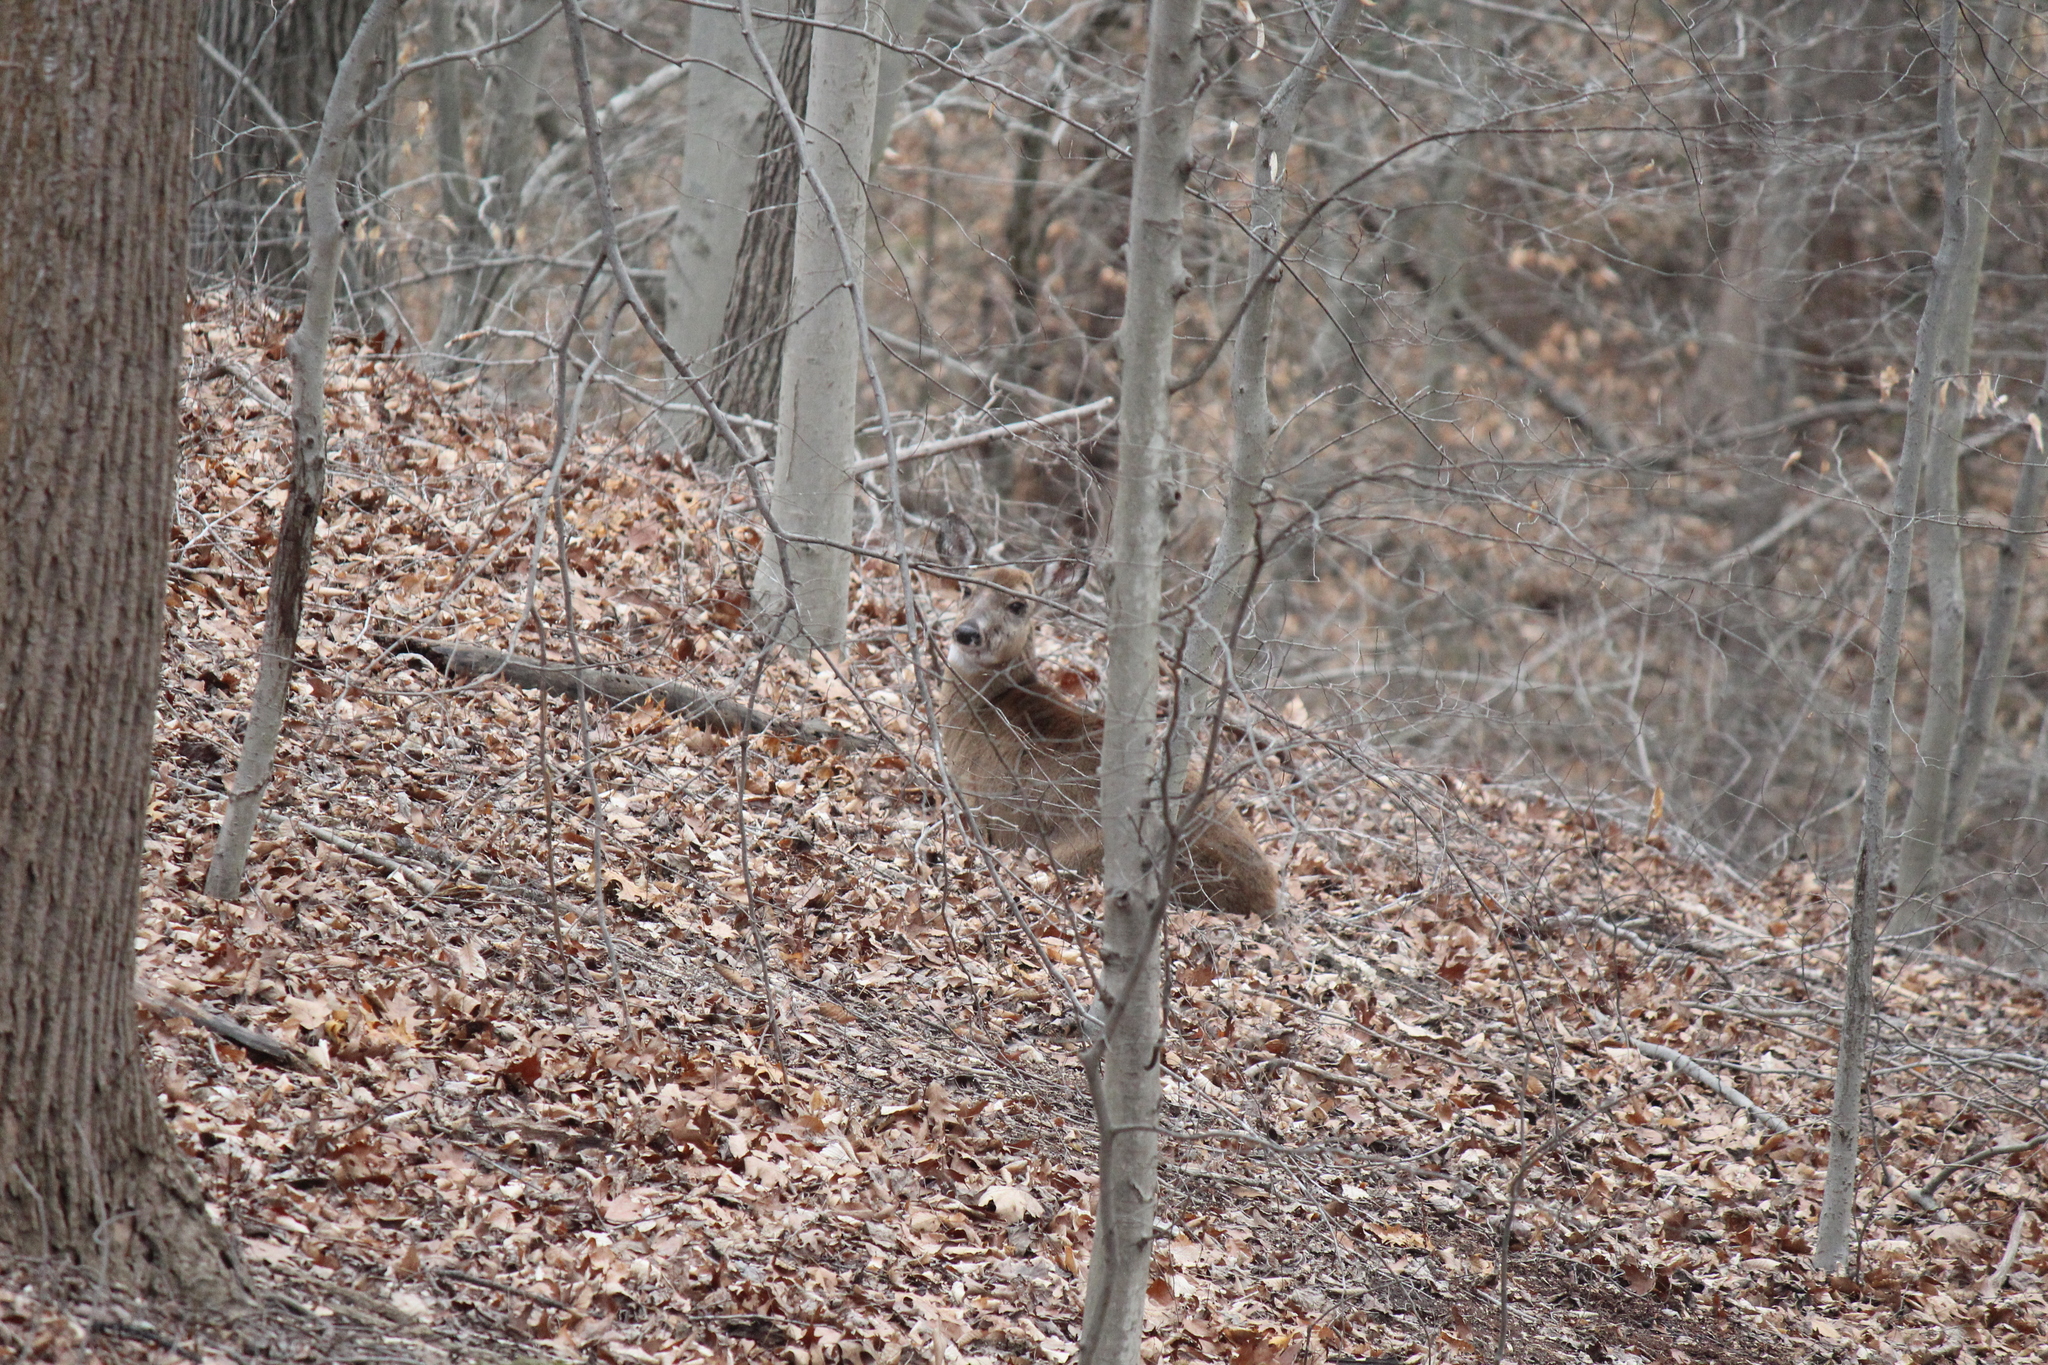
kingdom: Animalia
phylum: Chordata
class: Mammalia
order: Artiodactyla
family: Cervidae
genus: Odocoileus
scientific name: Odocoileus virginianus
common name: White-tailed deer
